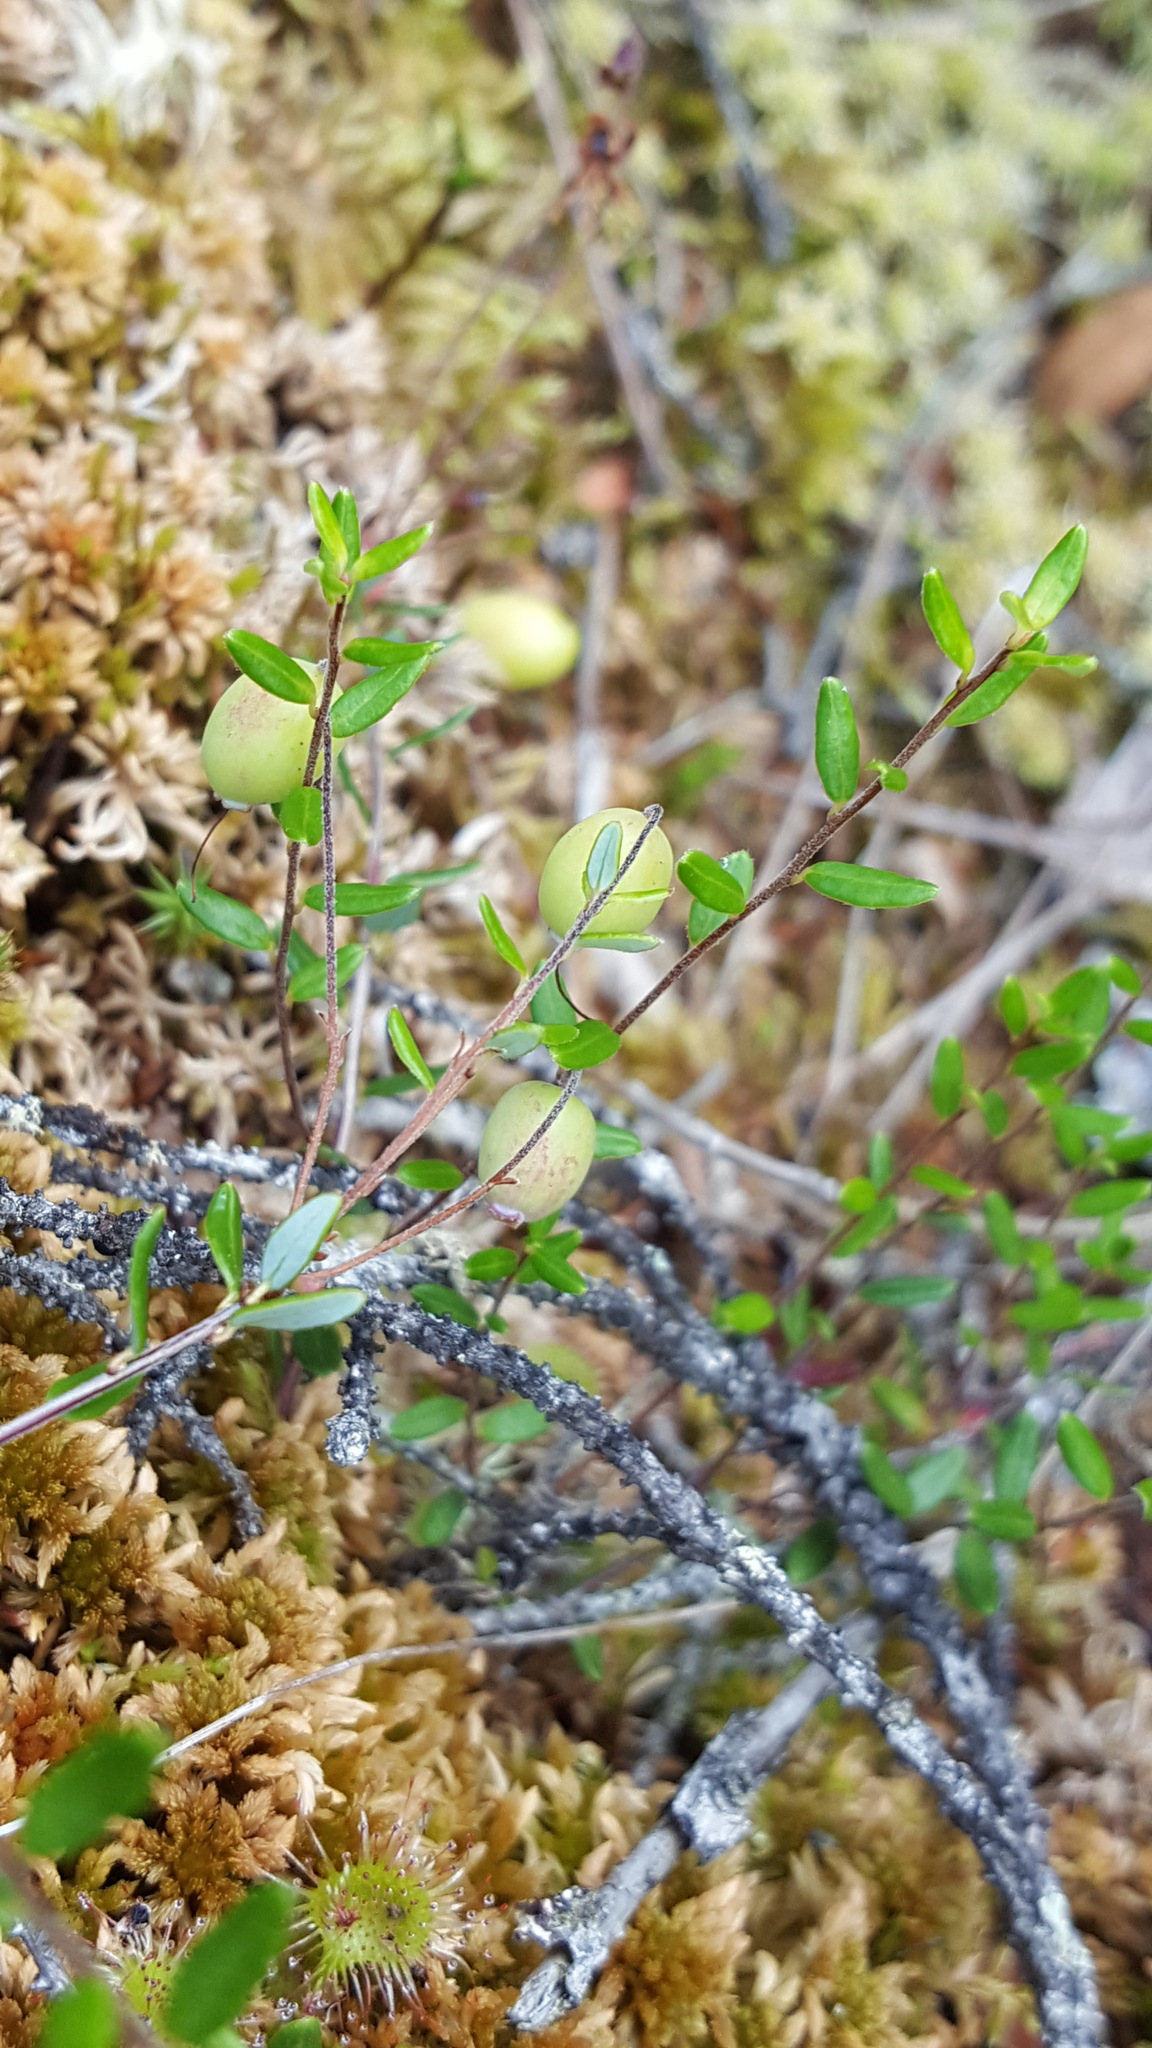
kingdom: Plantae
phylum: Tracheophyta
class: Magnoliopsida
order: Ericales
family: Ericaceae
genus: Vaccinium
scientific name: Vaccinium oxycoccos
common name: Cranberry
